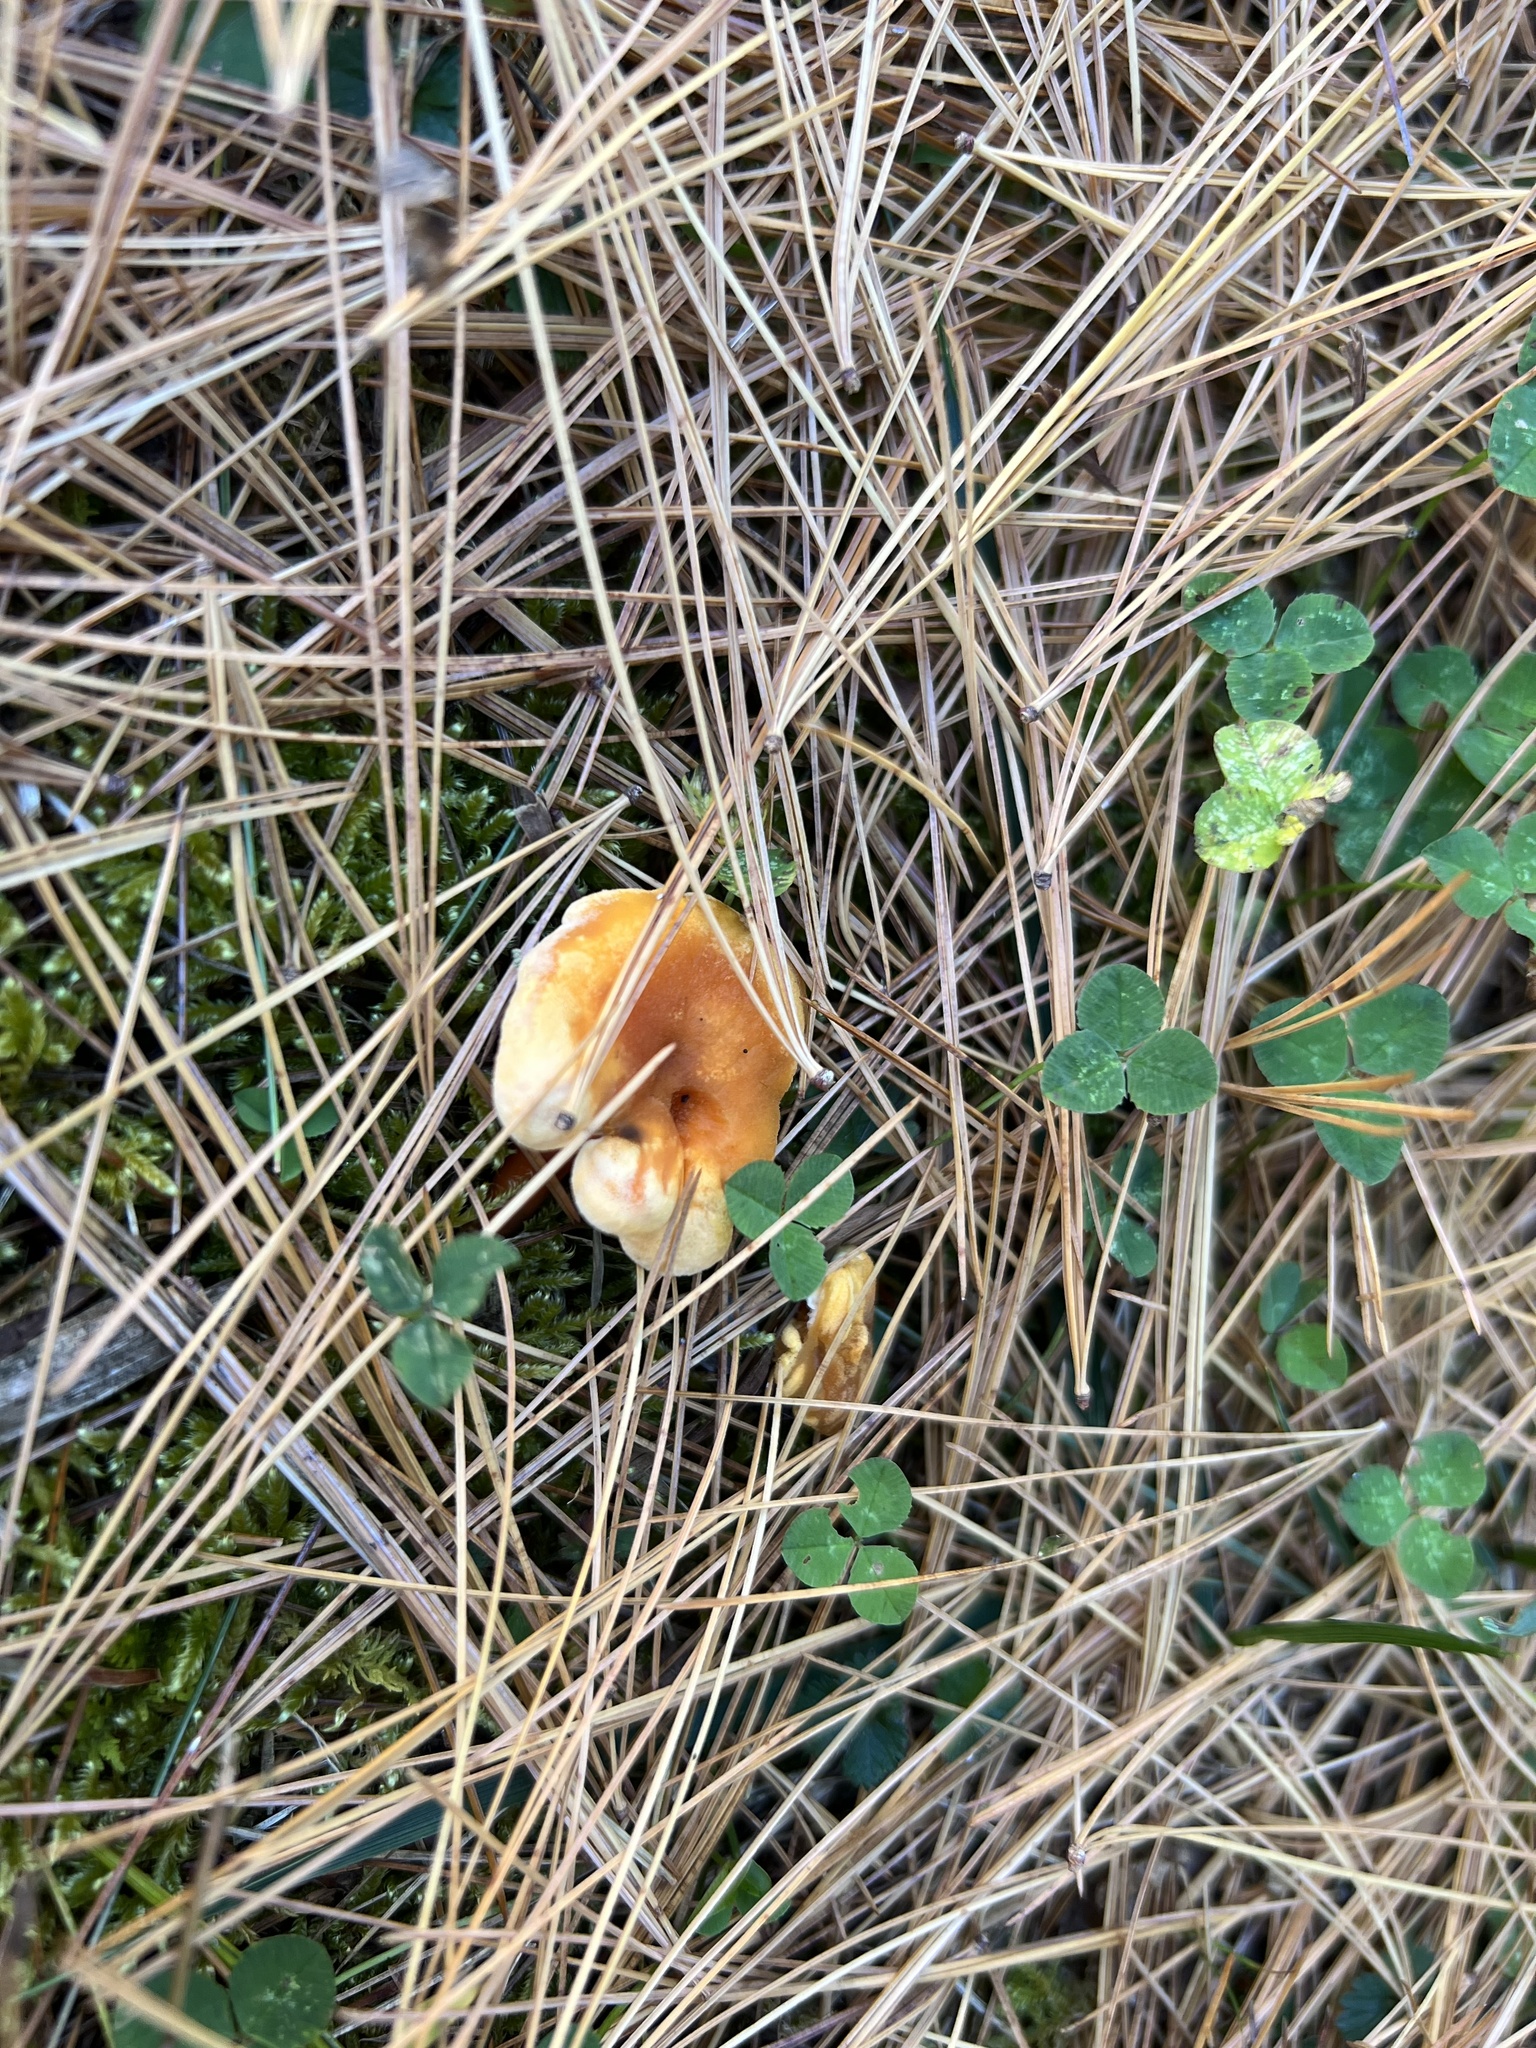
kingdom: Fungi
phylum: Basidiomycota
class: Agaricomycetes
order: Boletales
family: Hygrophoropsidaceae
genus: Hygrophoropsis
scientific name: Hygrophoropsis aurantiaca
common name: False chanterelle
